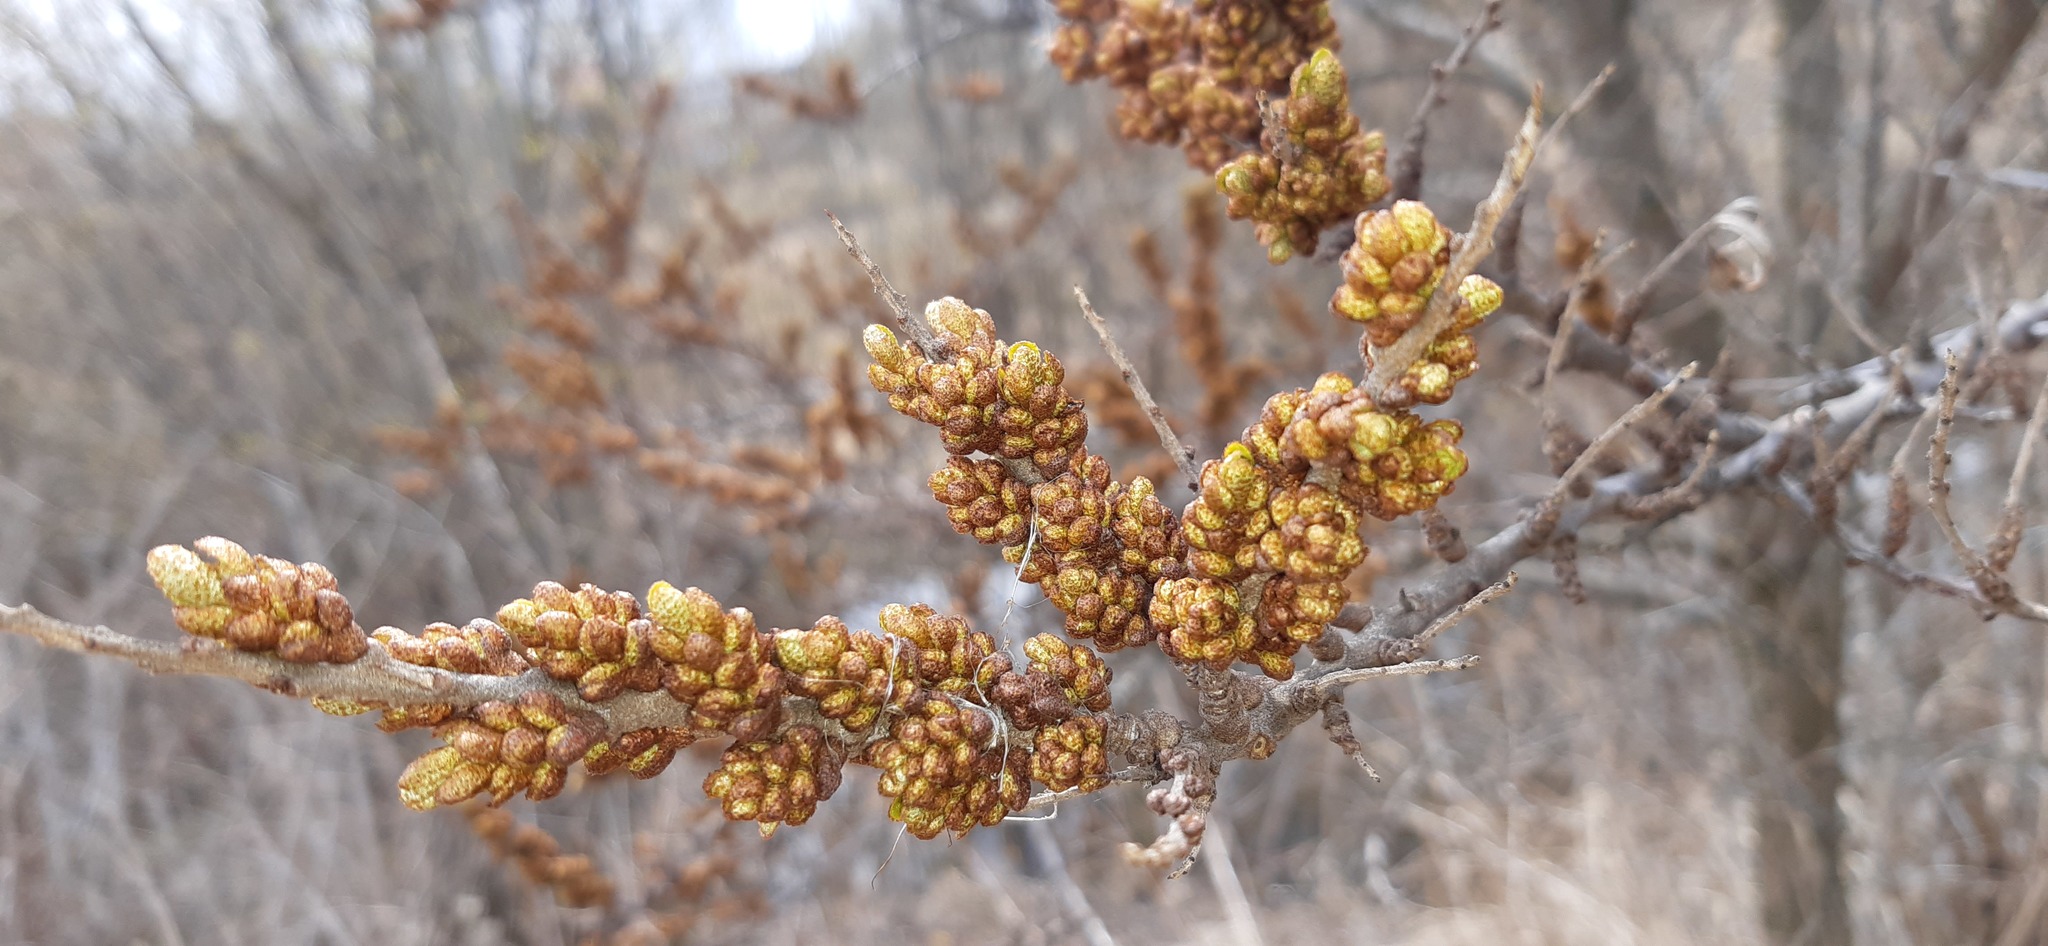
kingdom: Plantae
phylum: Tracheophyta
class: Magnoliopsida
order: Rosales
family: Elaeagnaceae
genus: Hippophae
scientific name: Hippophae rhamnoides
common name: Sea-buckthorn
